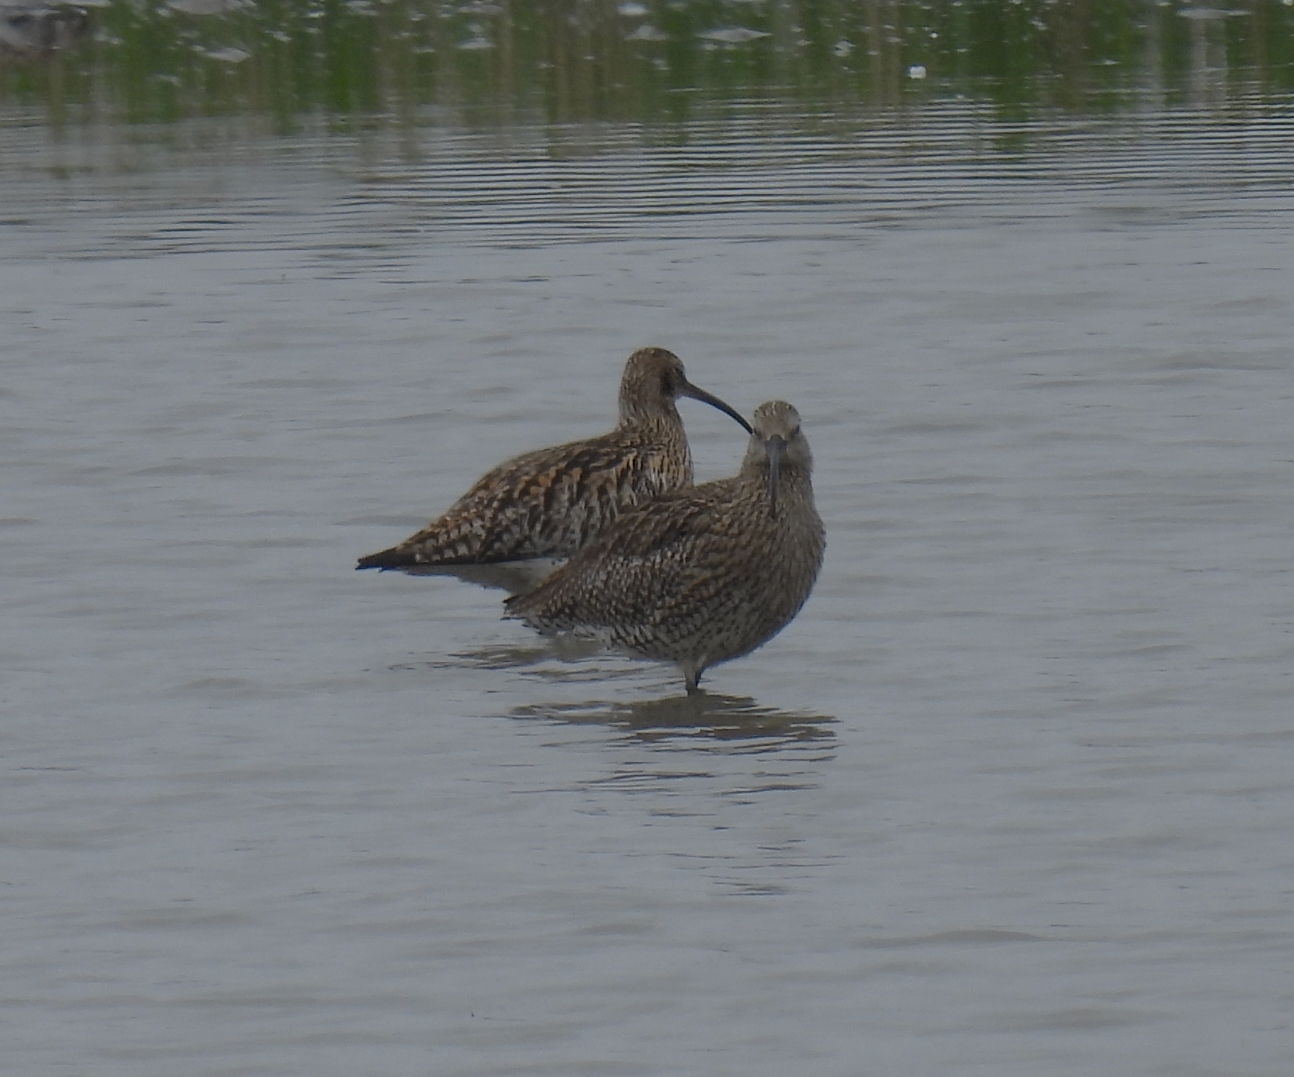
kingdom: Animalia
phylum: Chordata
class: Aves
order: Charadriiformes
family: Scolopacidae
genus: Numenius
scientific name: Numenius arquata
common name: Eurasian curlew
